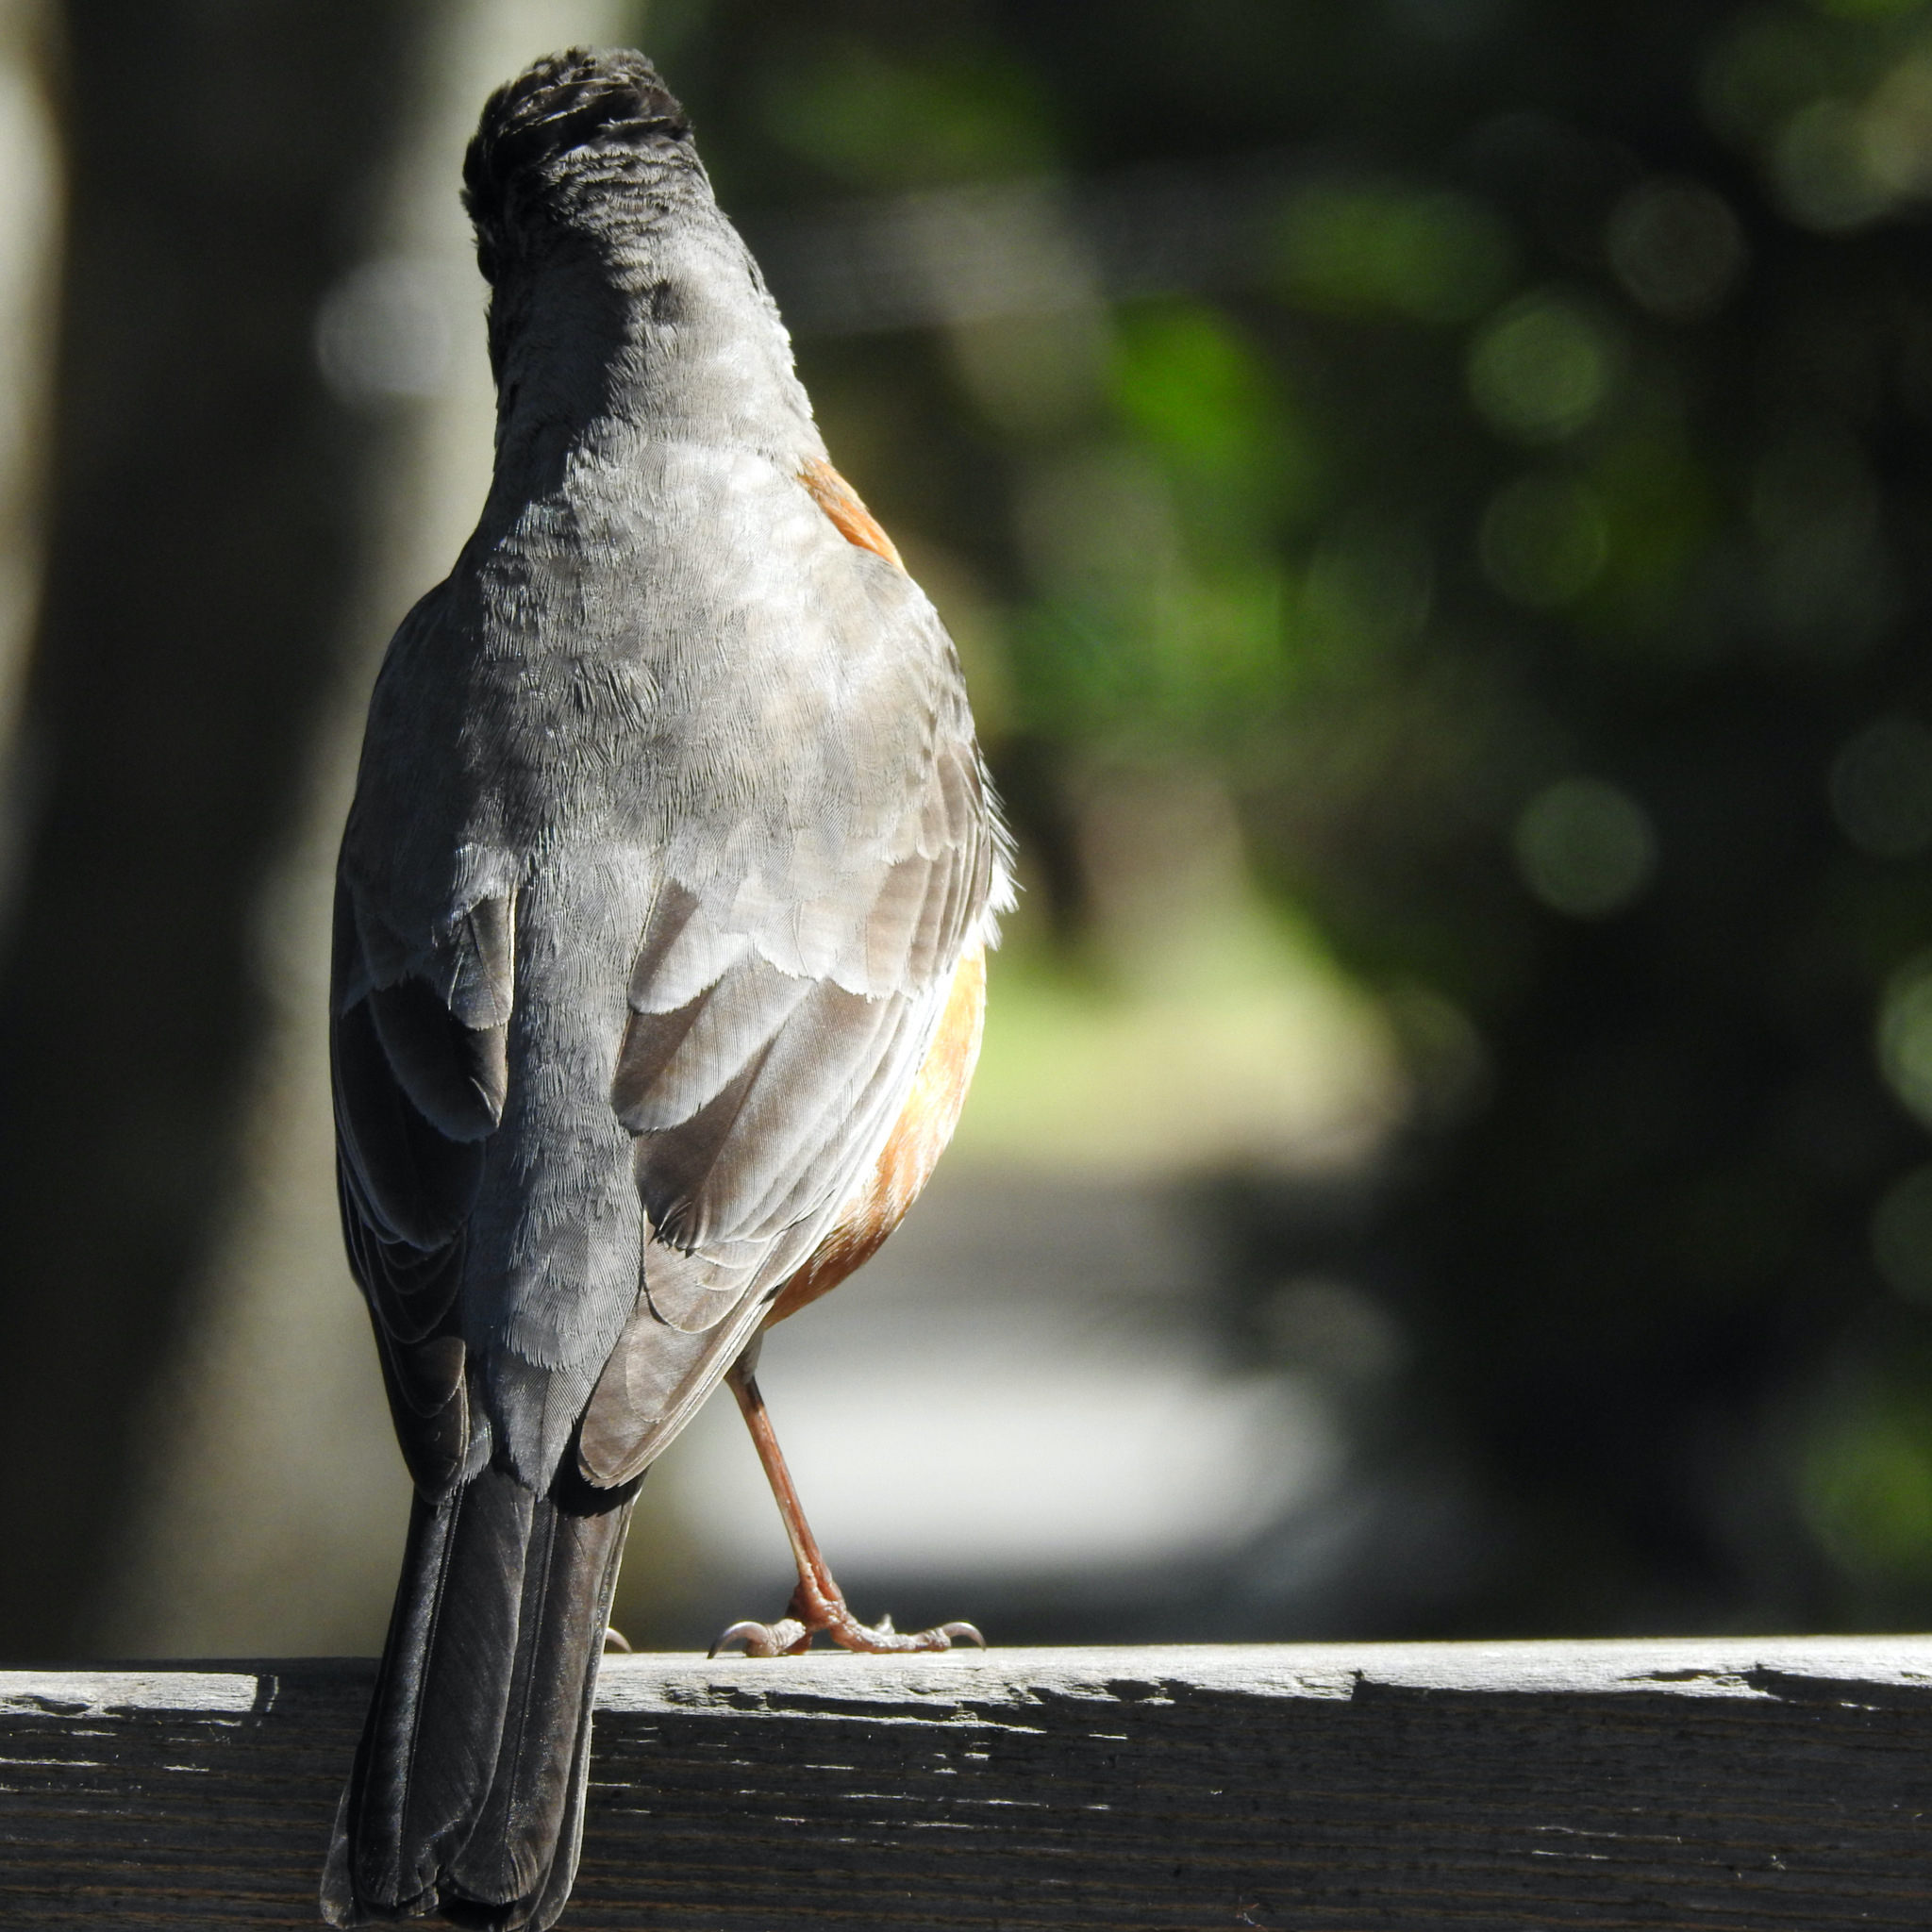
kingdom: Animalia
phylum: Chordata
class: Aves
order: Passeriformes
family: Turdidae
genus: Turdus
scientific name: Turdus migratorius
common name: American robin
